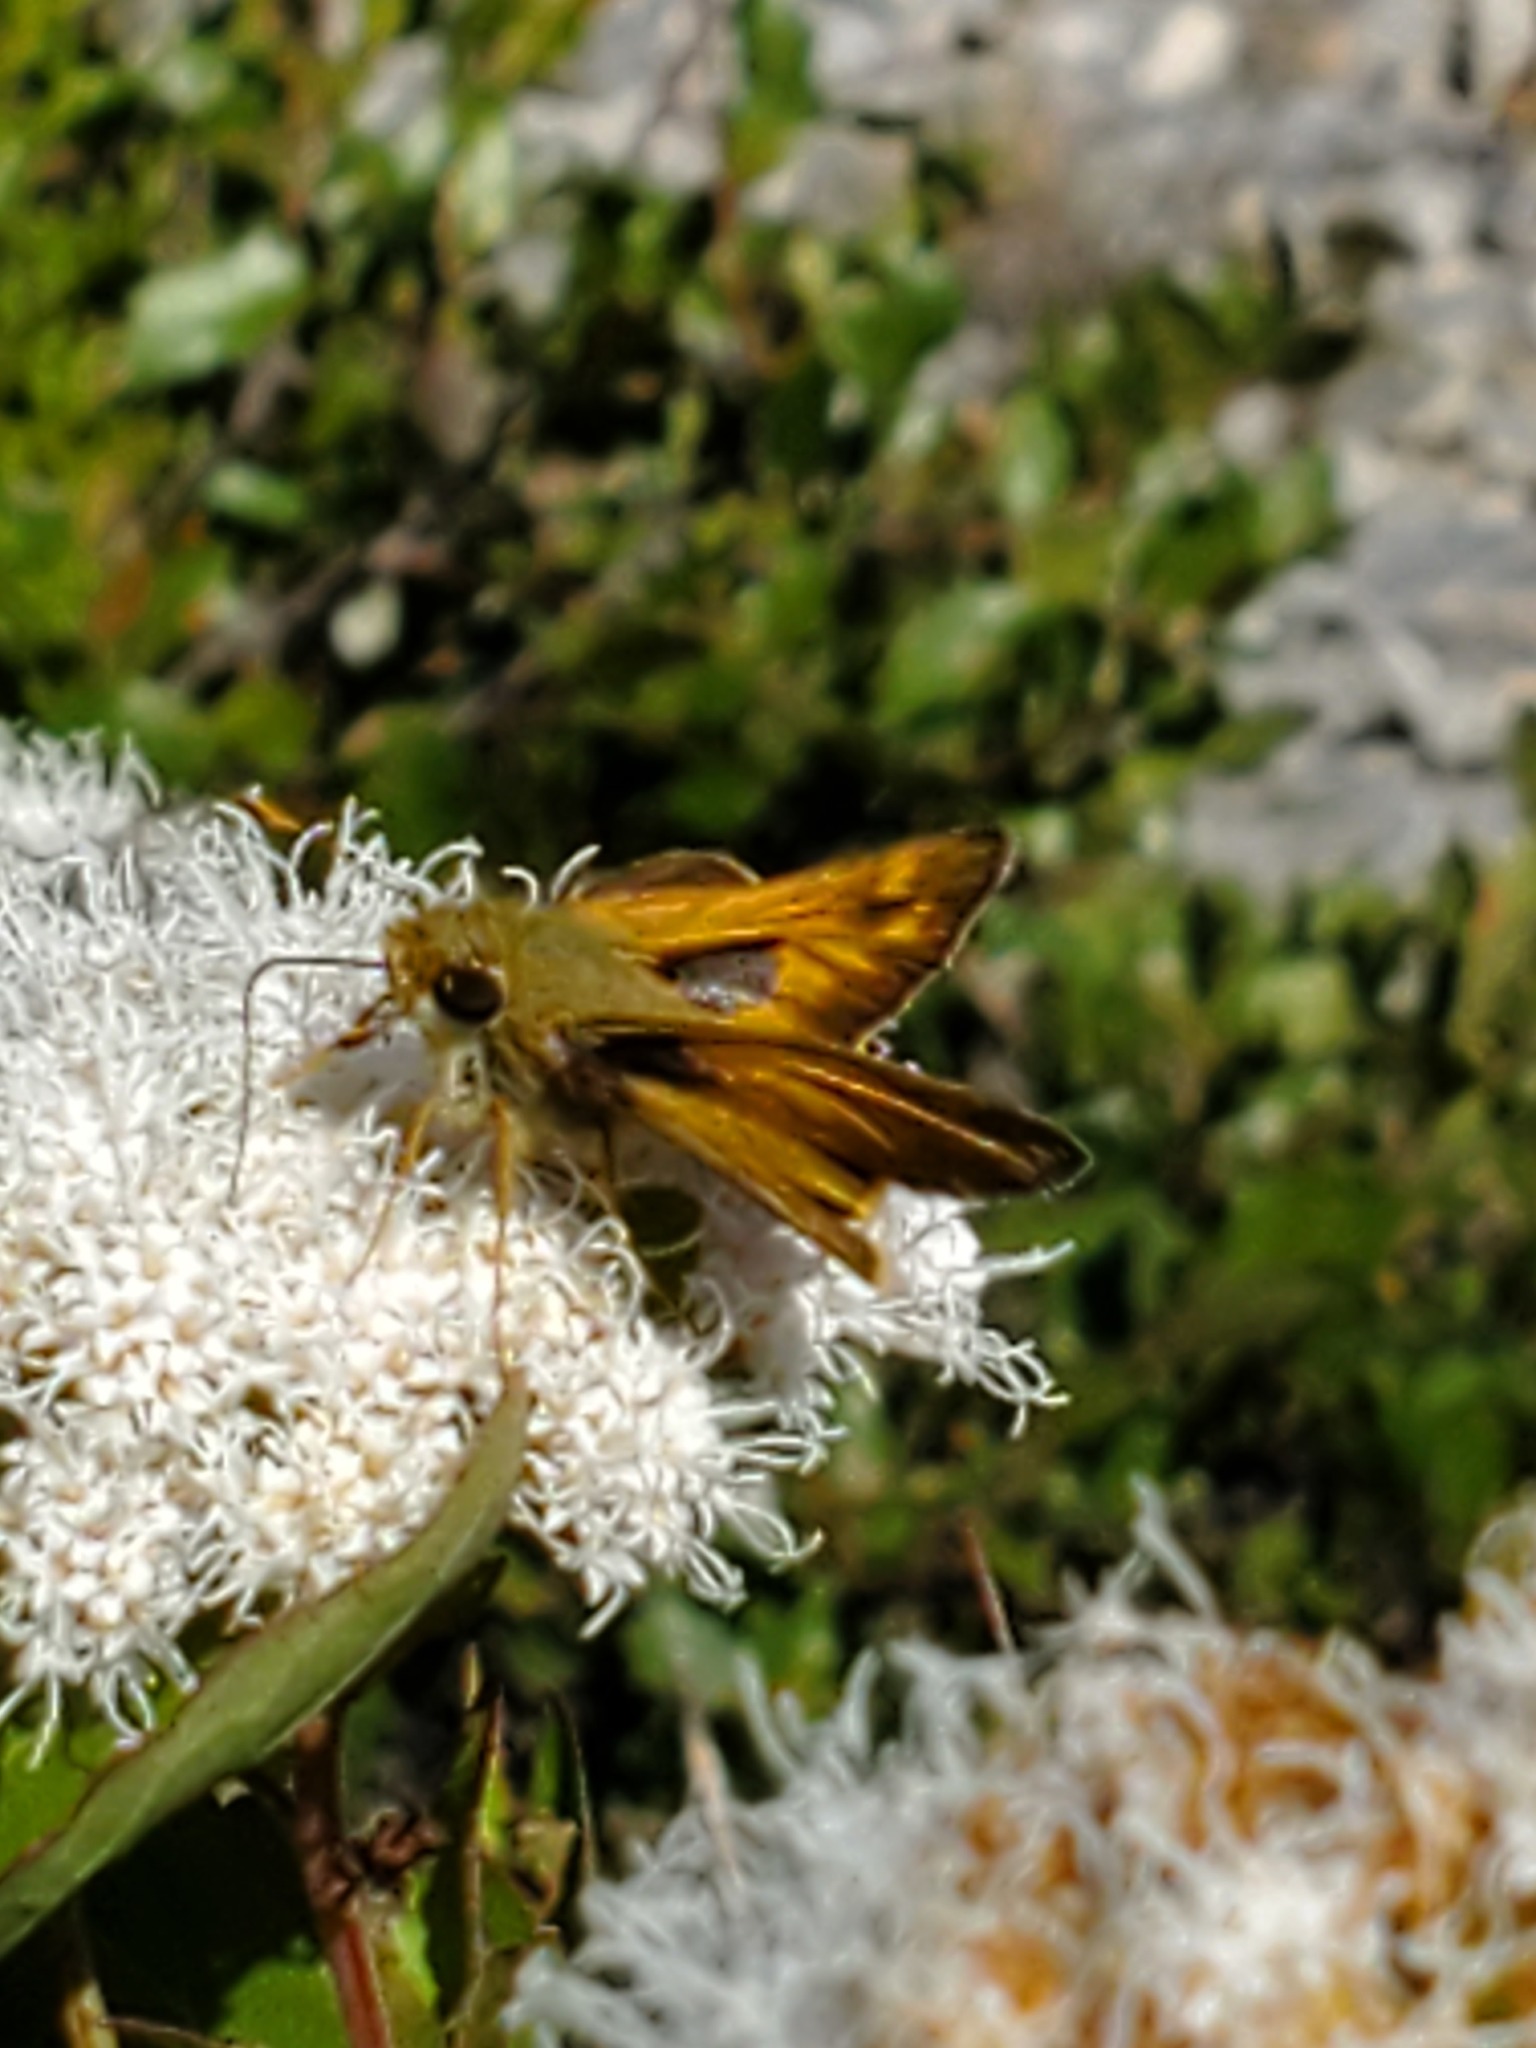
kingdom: Animalia
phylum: Arthropoda
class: Insecta
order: Lepidoptera
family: Hesperiidae
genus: Atalopedes
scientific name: Atalopedes
